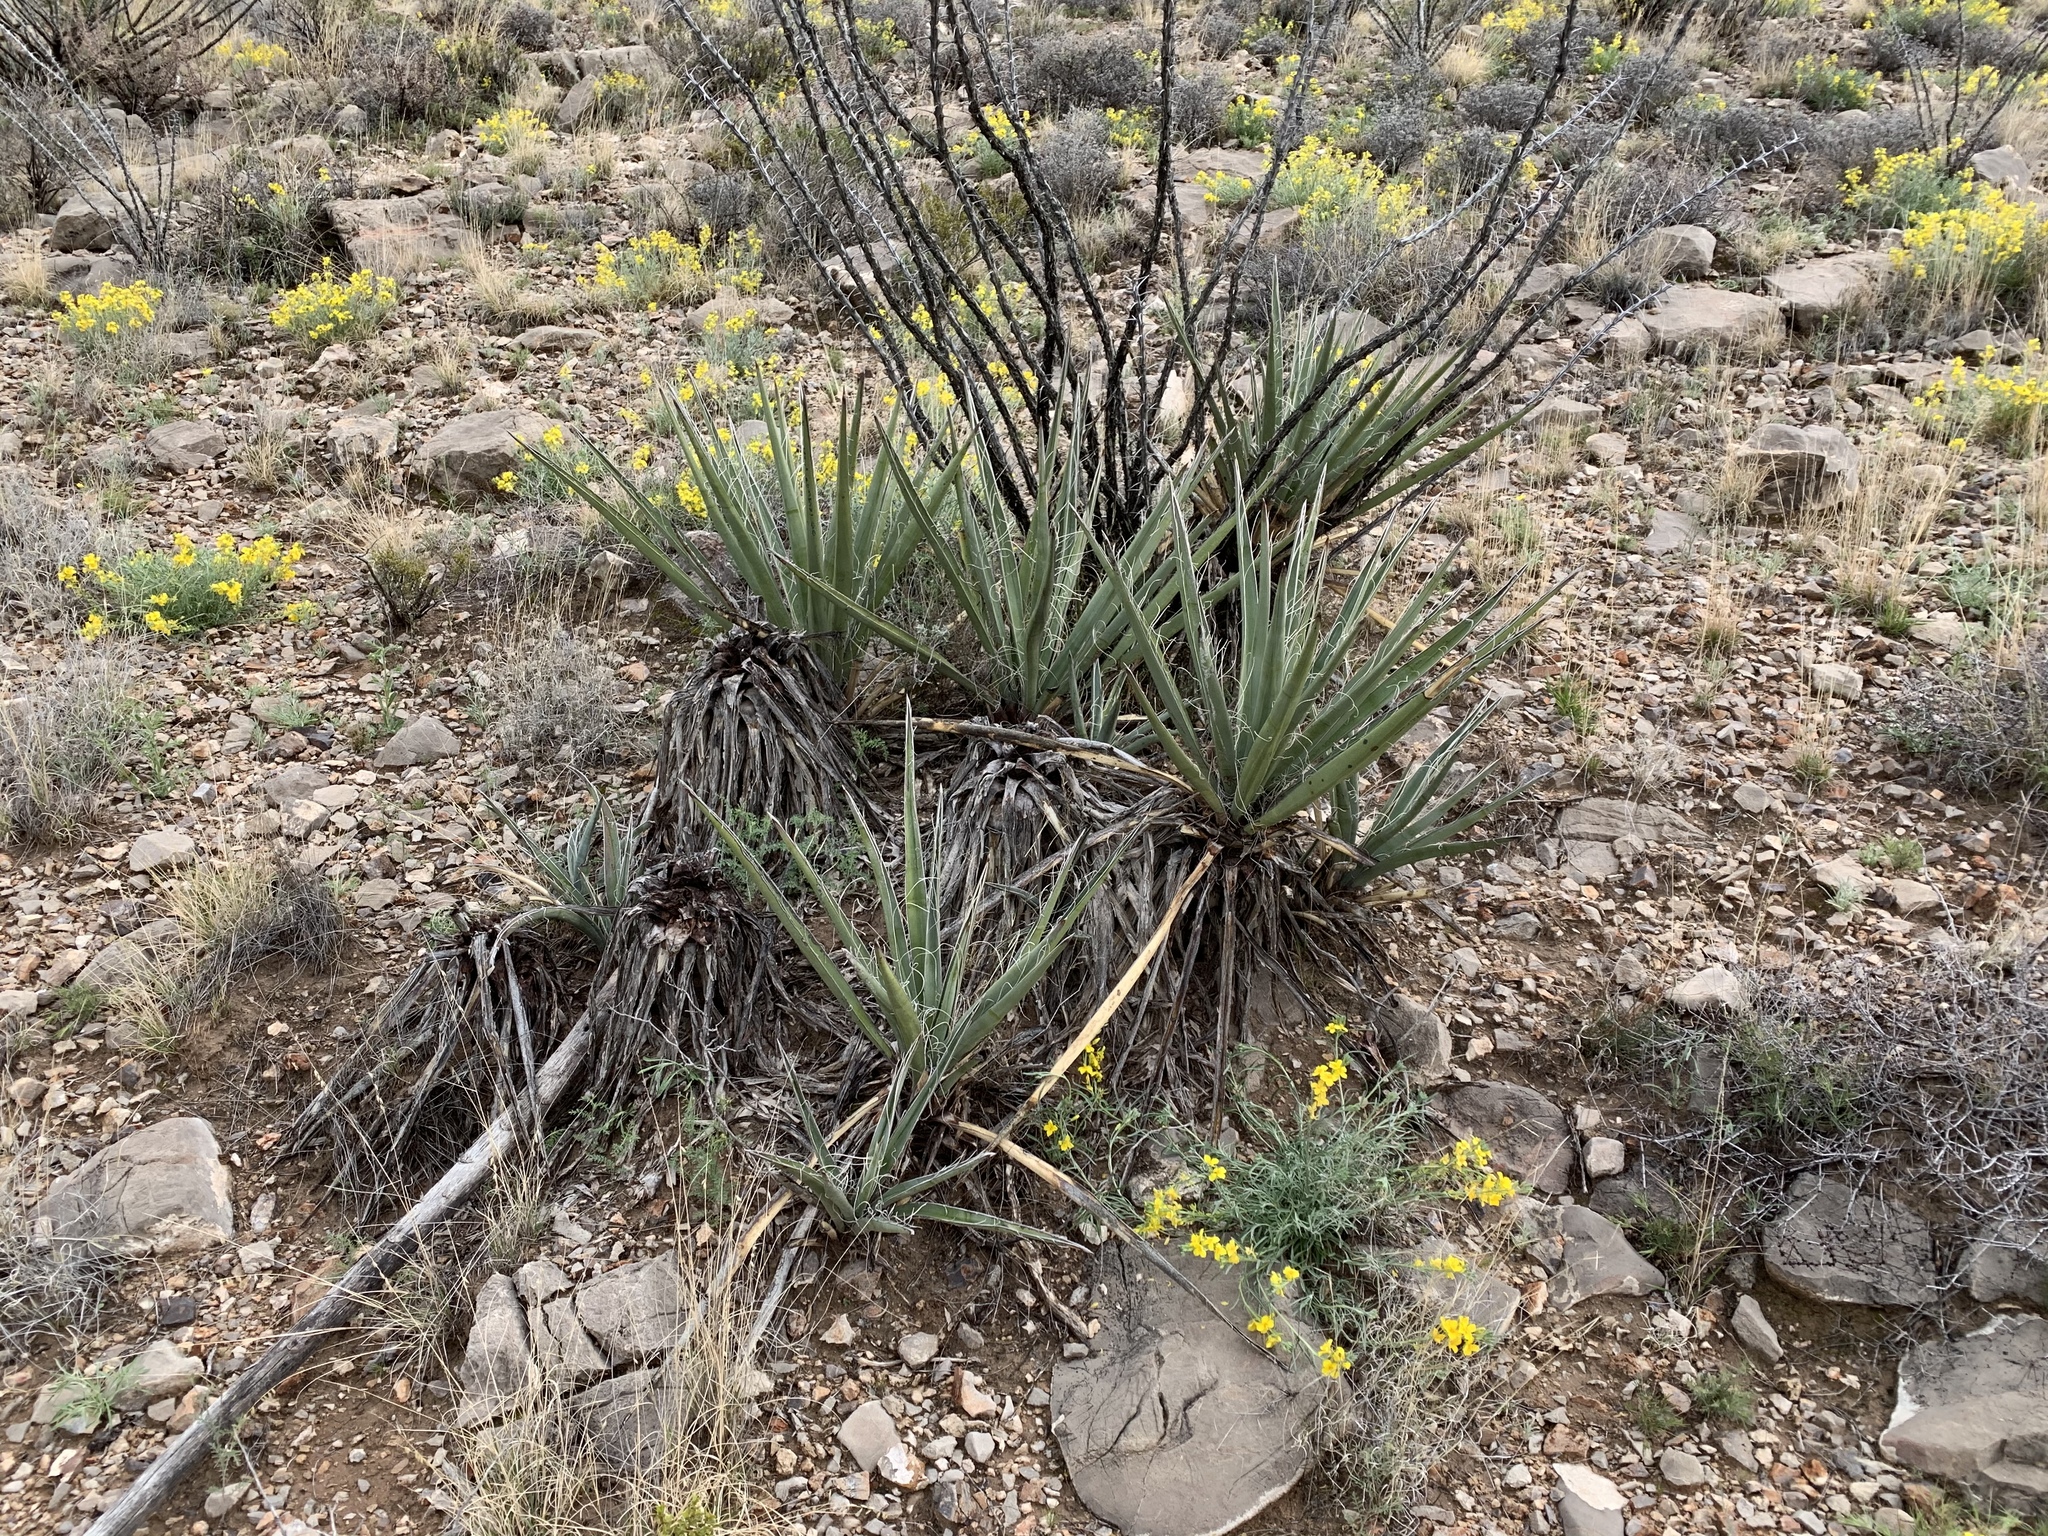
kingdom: Plantae
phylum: Tracheophyta
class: Liliopsida
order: Asparagales
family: Asparagaceae
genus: Yucca
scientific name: Yucca baccata
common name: Banana yucca
